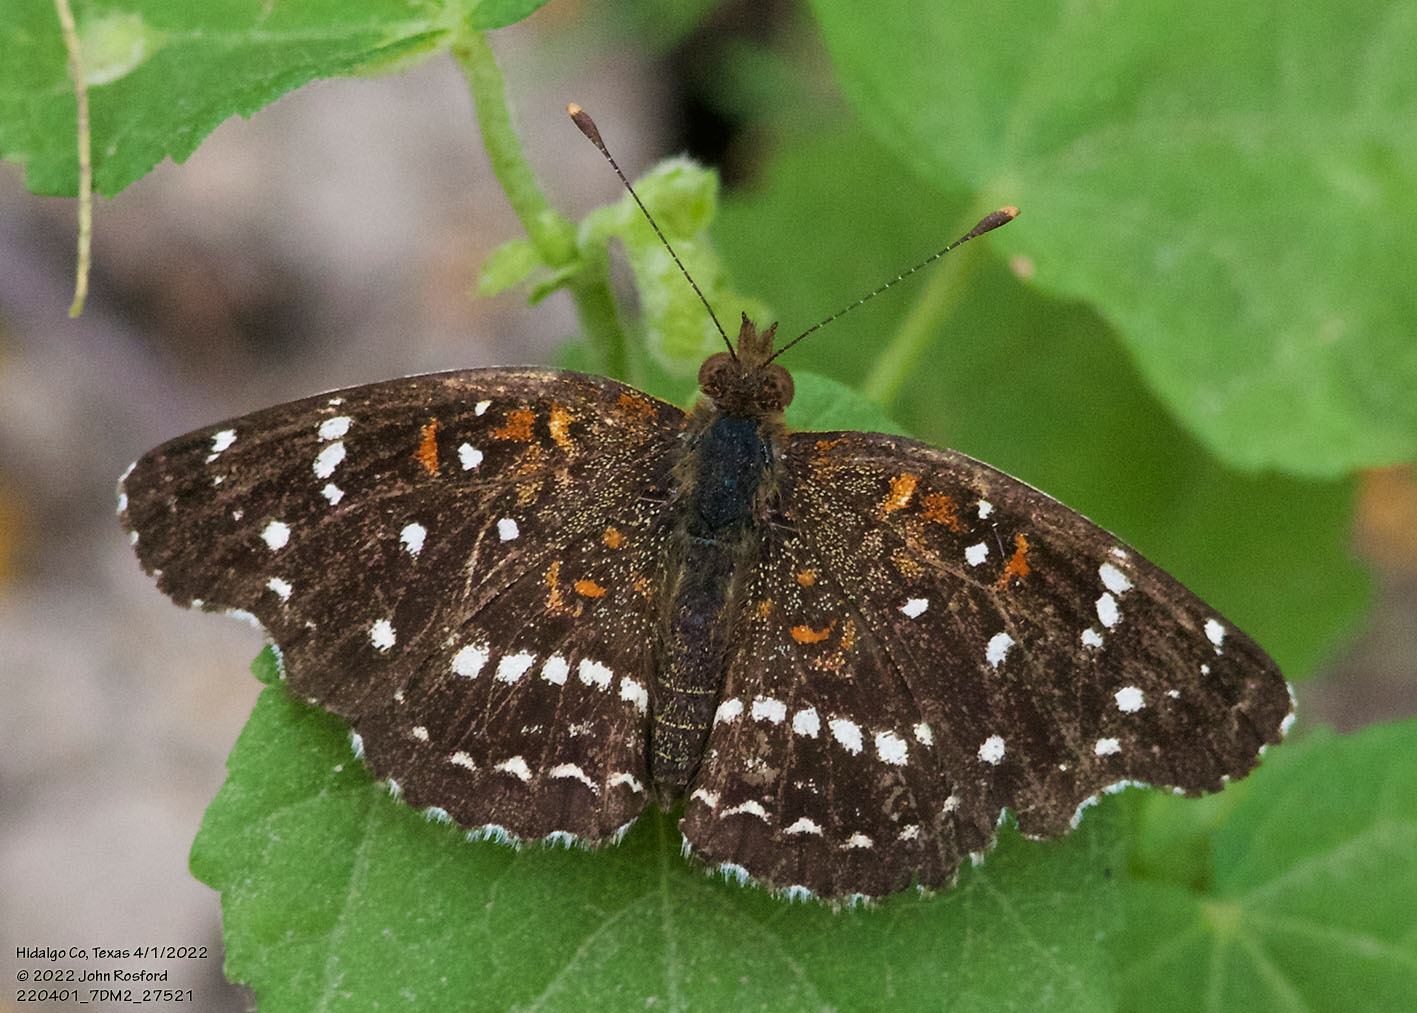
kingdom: Animalia
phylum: Arthropoda
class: Insecta
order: Lepidoptera
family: Nymphalidae
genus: Anthanassa
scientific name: Anthanassa texana
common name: Texan crescent
